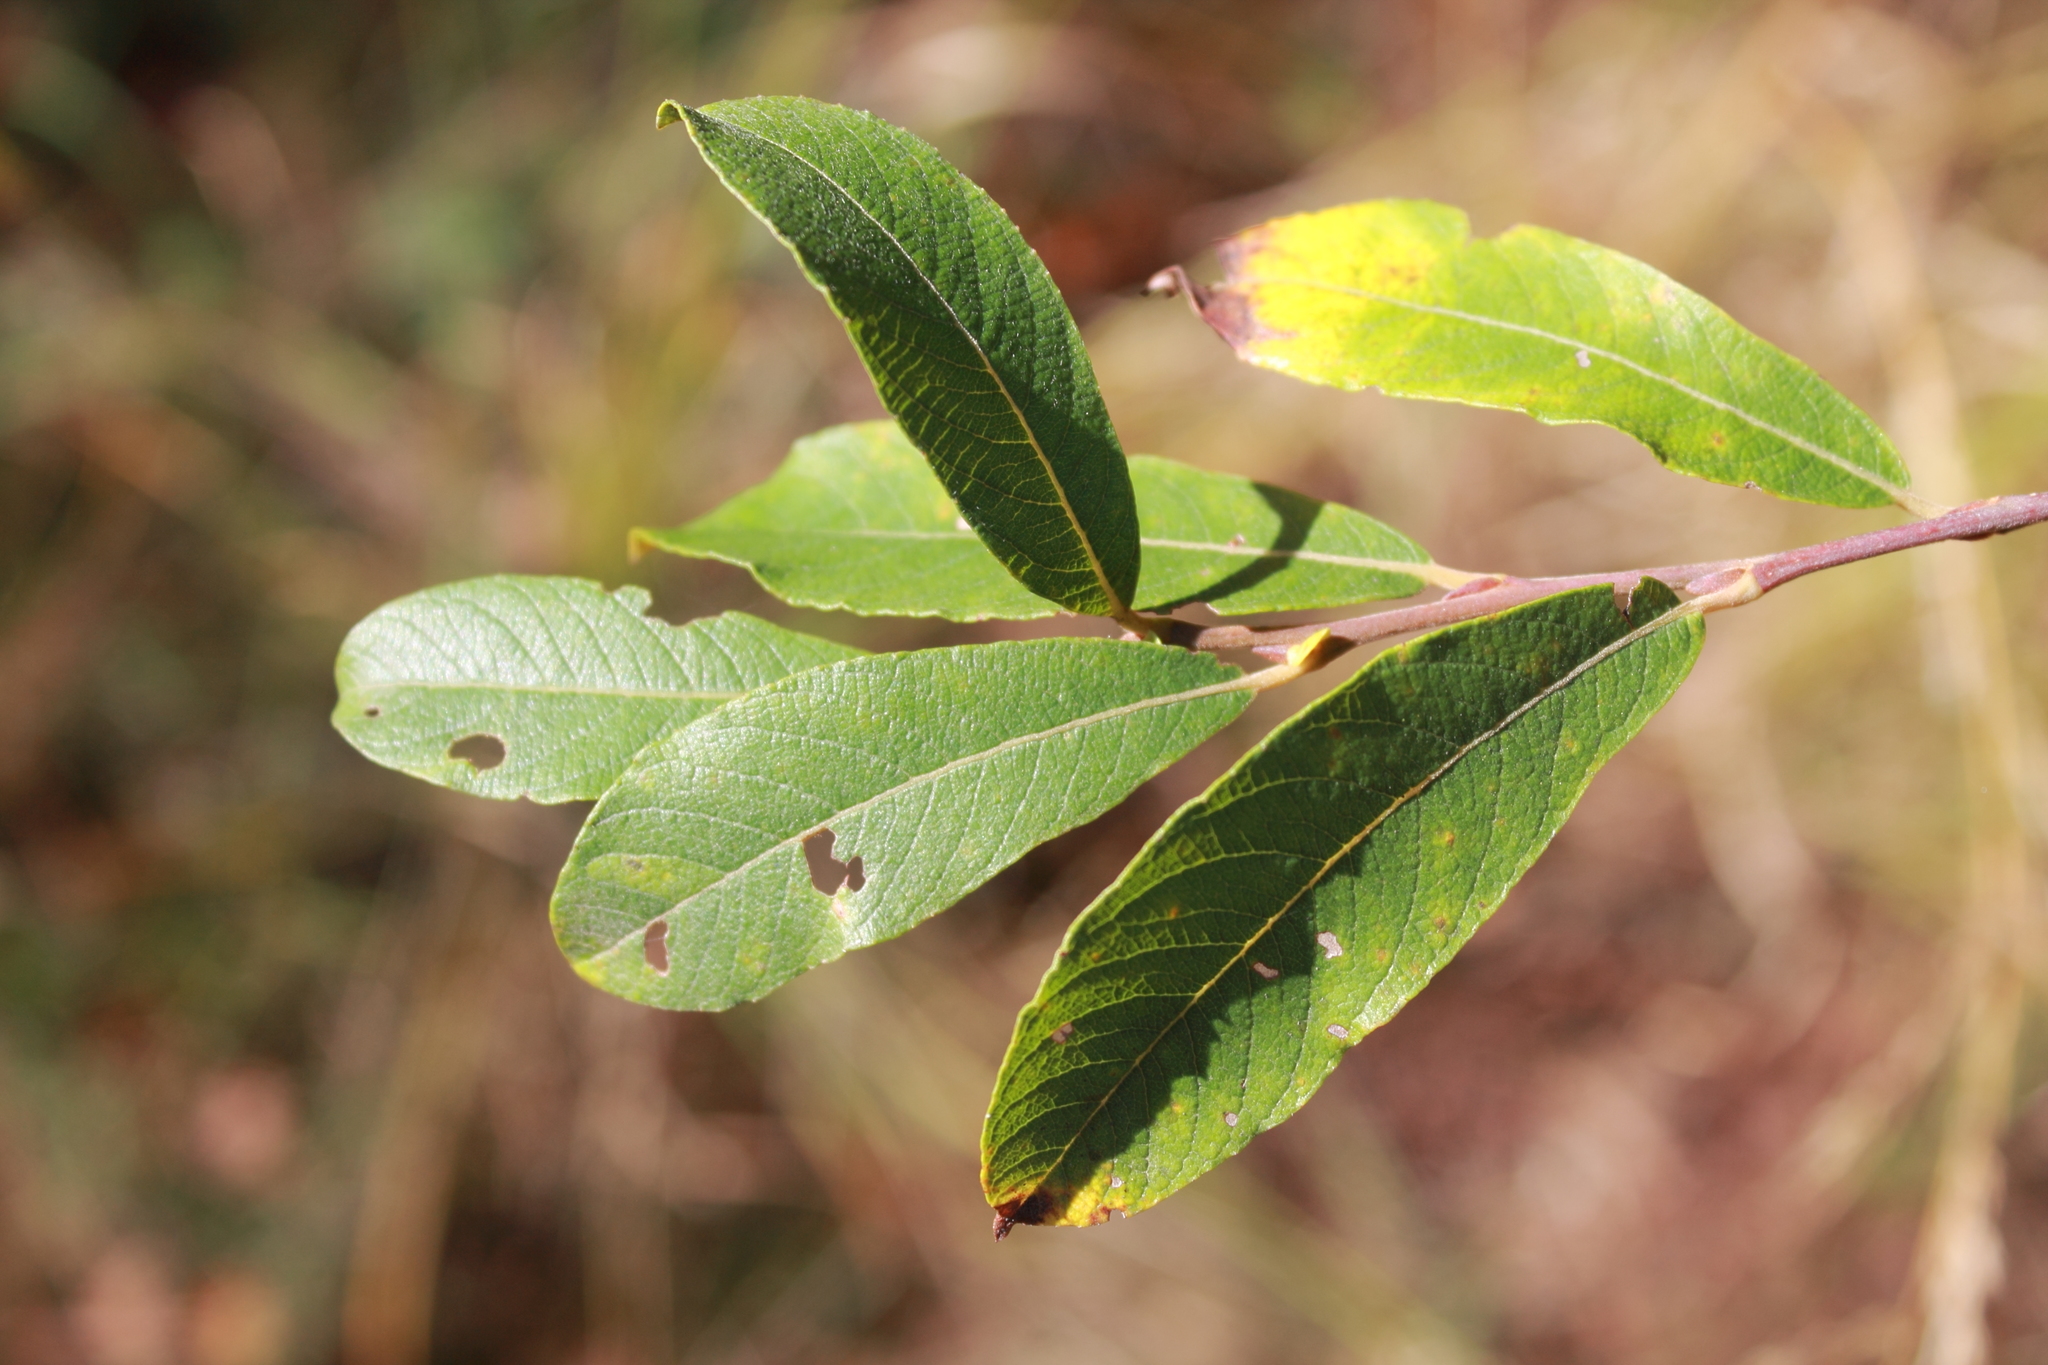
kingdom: Plantae
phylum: Tracheophyta
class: Magnoliopsida
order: Malpighiales
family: Salicaceae
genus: Salix
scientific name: Salix atrocinerea
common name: Rusty willow
